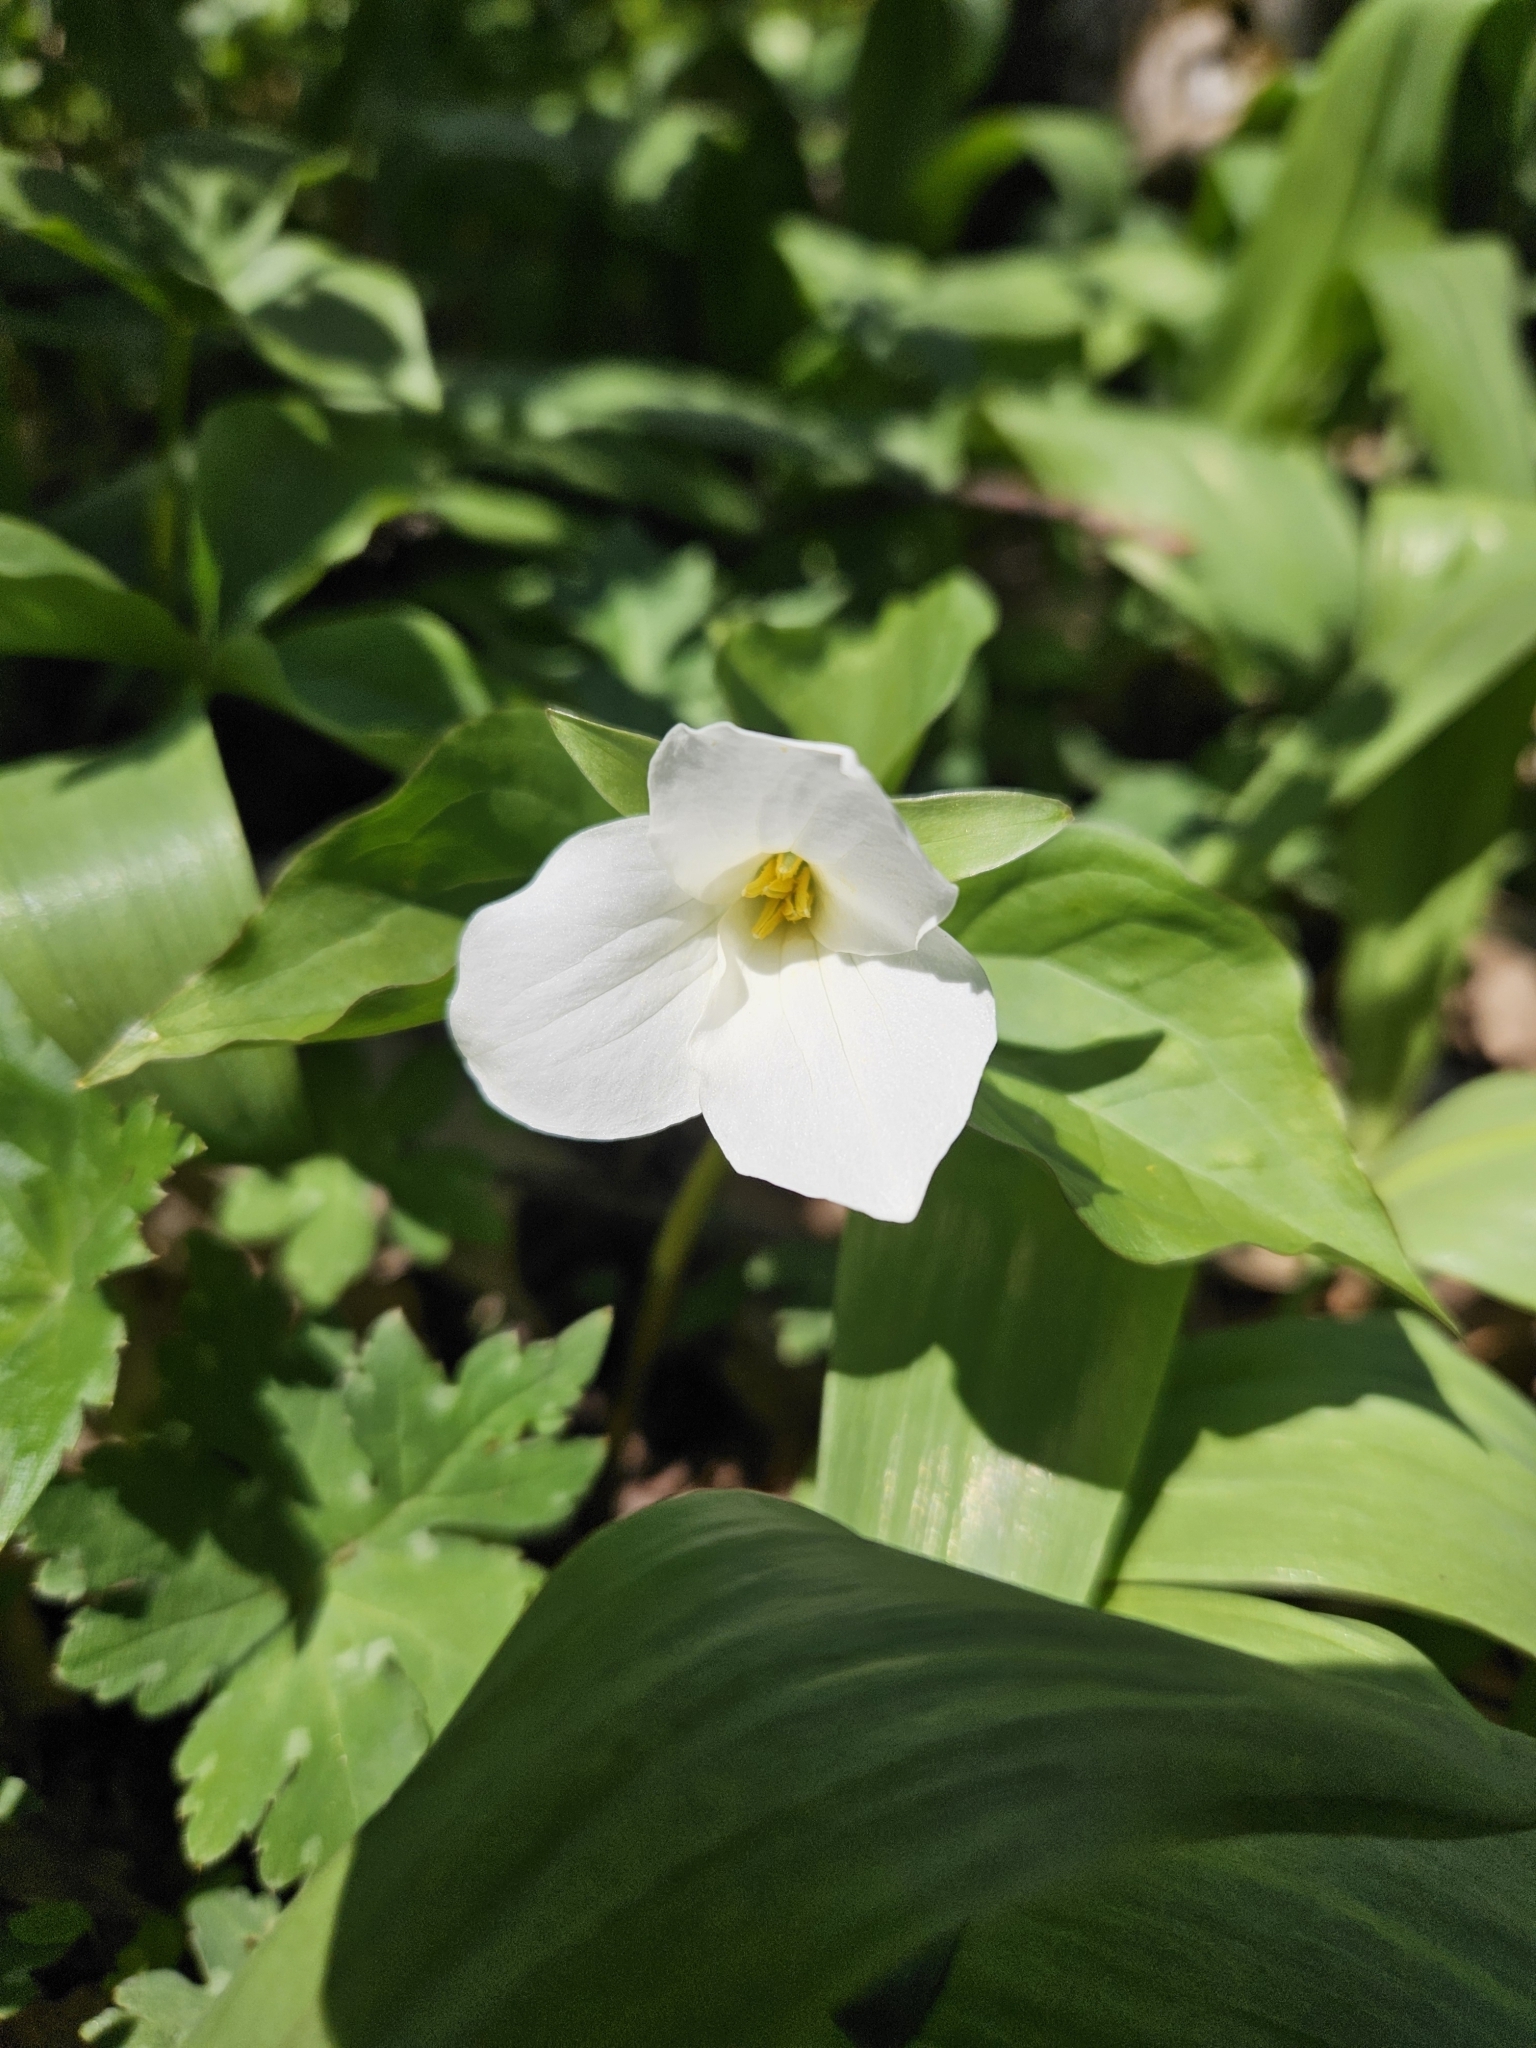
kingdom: Plantae
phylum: Tracheophyta
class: Liliopsida
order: Liliales
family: Melanthiaceae
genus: Trillium
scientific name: Trillium grandiflorum
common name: Great white trillium
